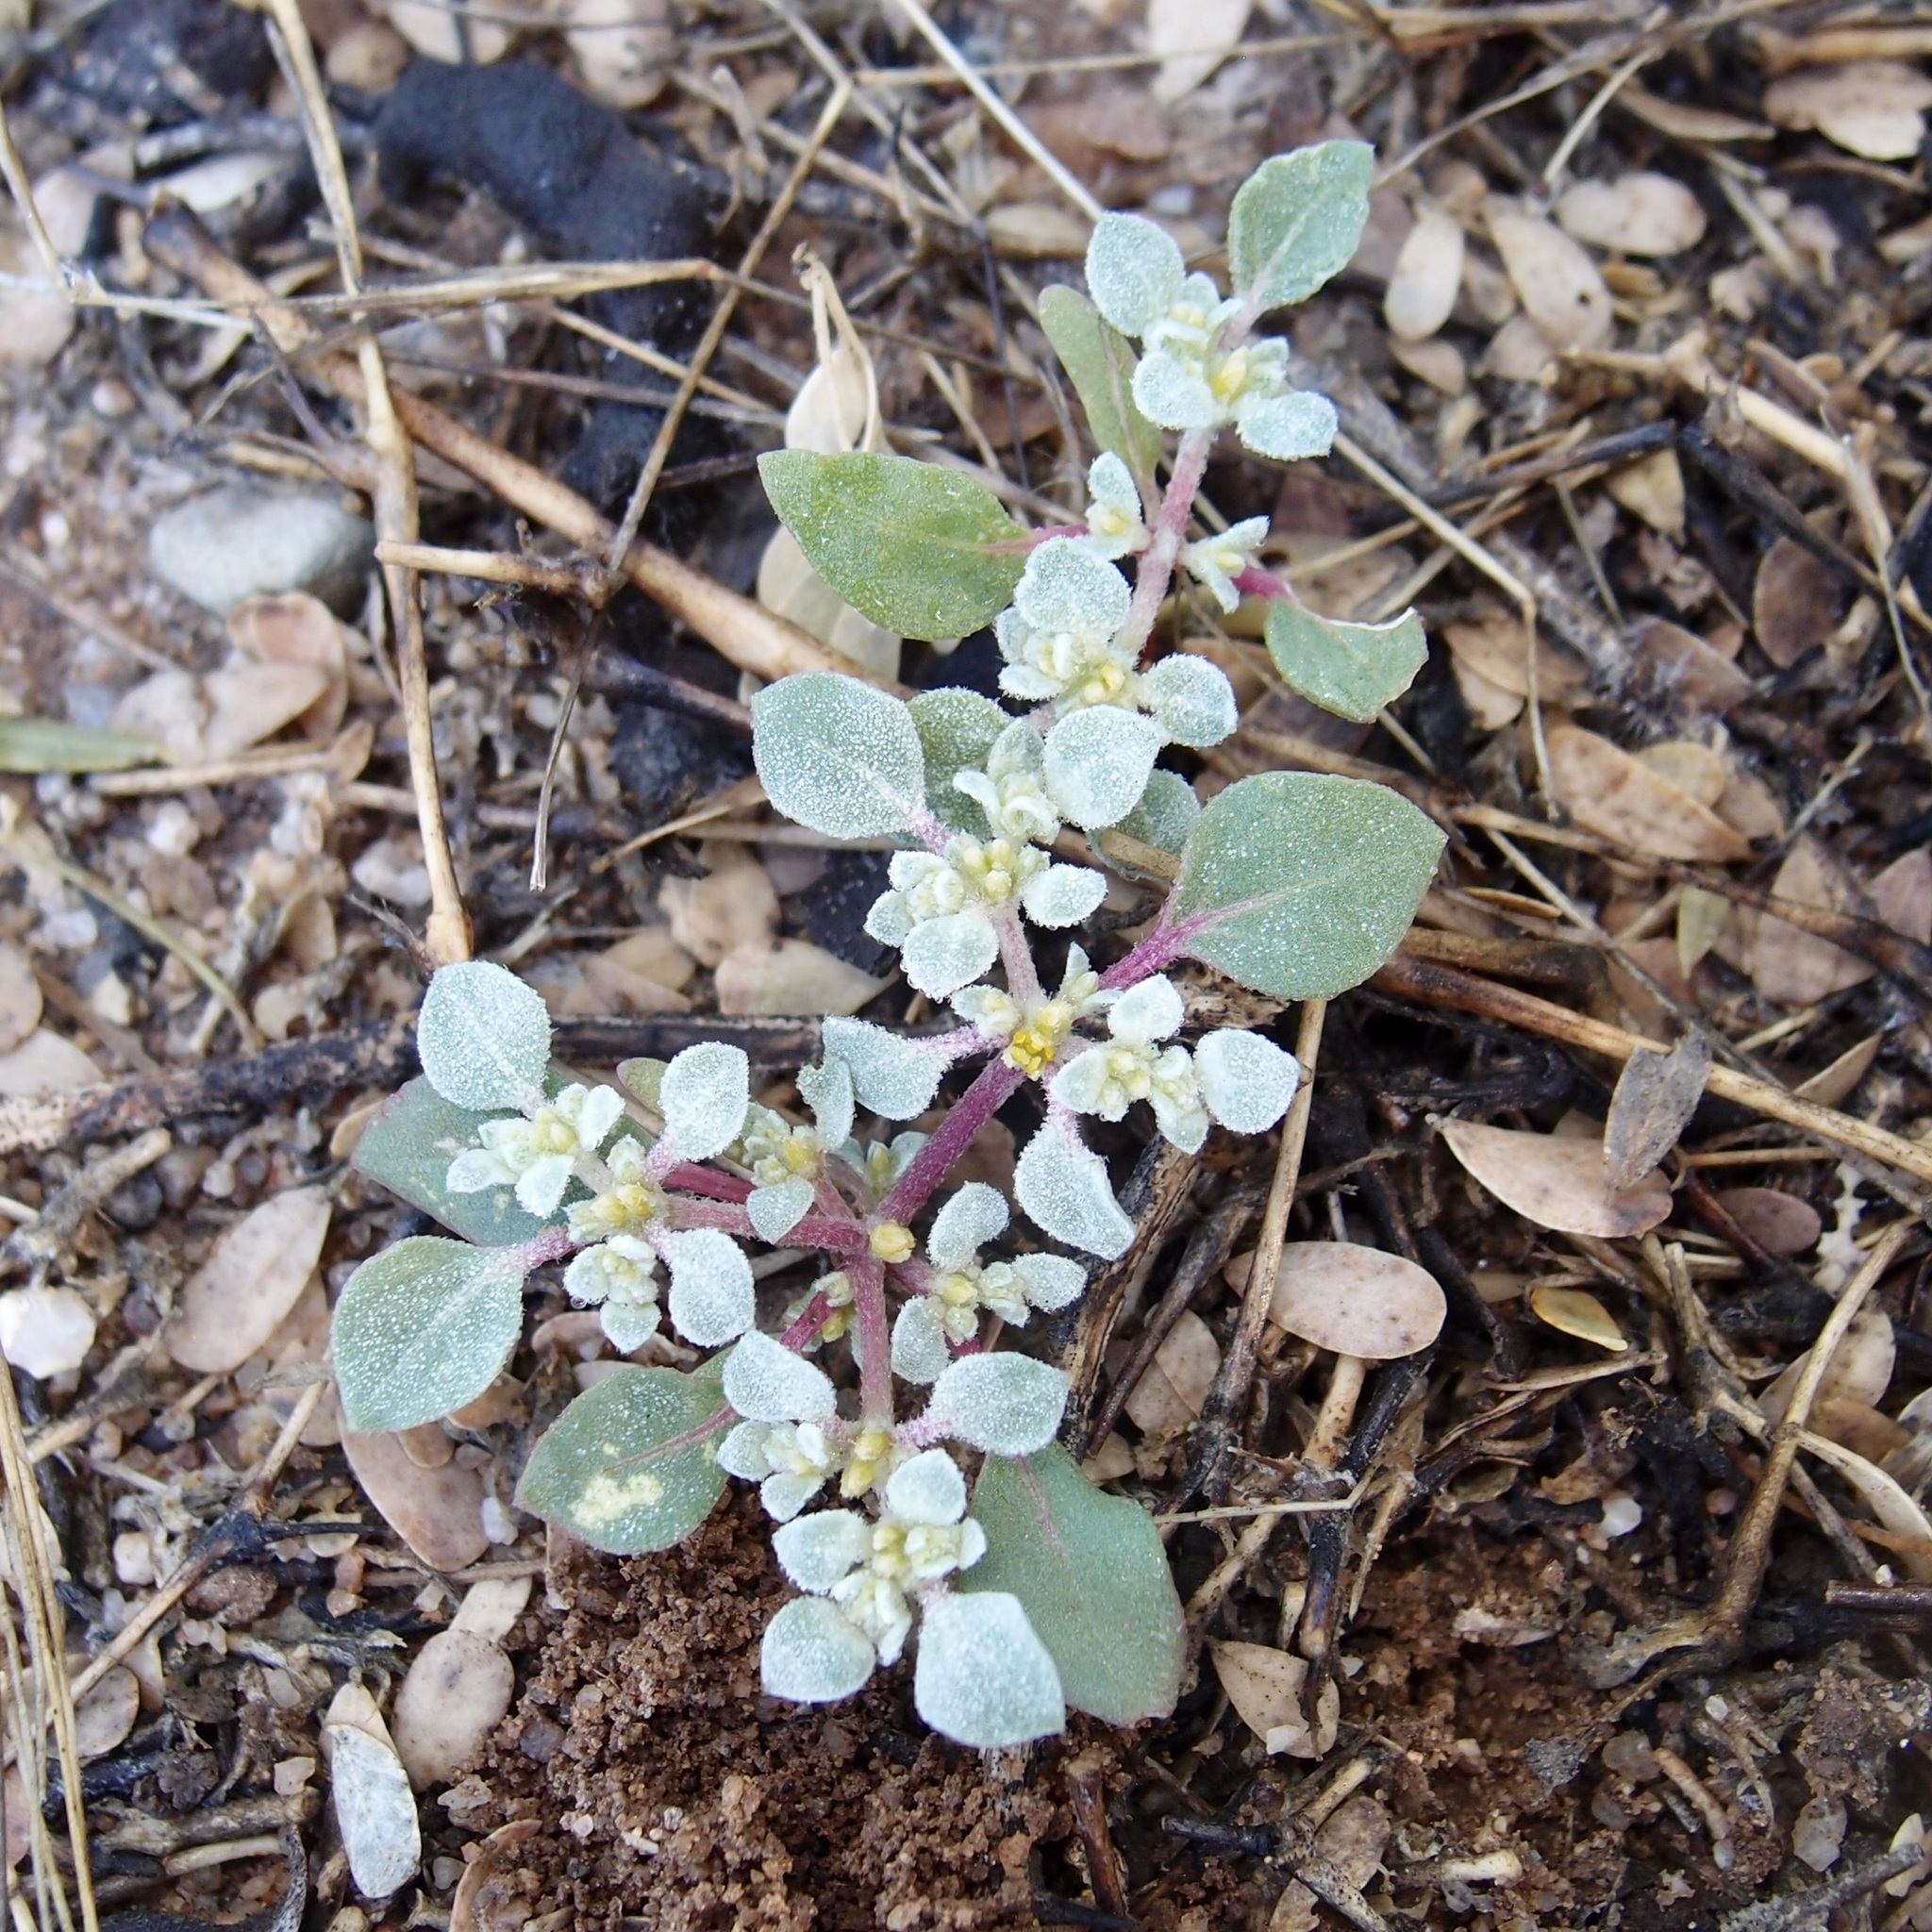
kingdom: Plantae
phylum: Tracheophyta
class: Magnoliopsida
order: Caryophyllales
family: Amaranthaceae
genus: Tidestromia
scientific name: Tidestromia lanuginosa
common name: Woolly tidestromia
